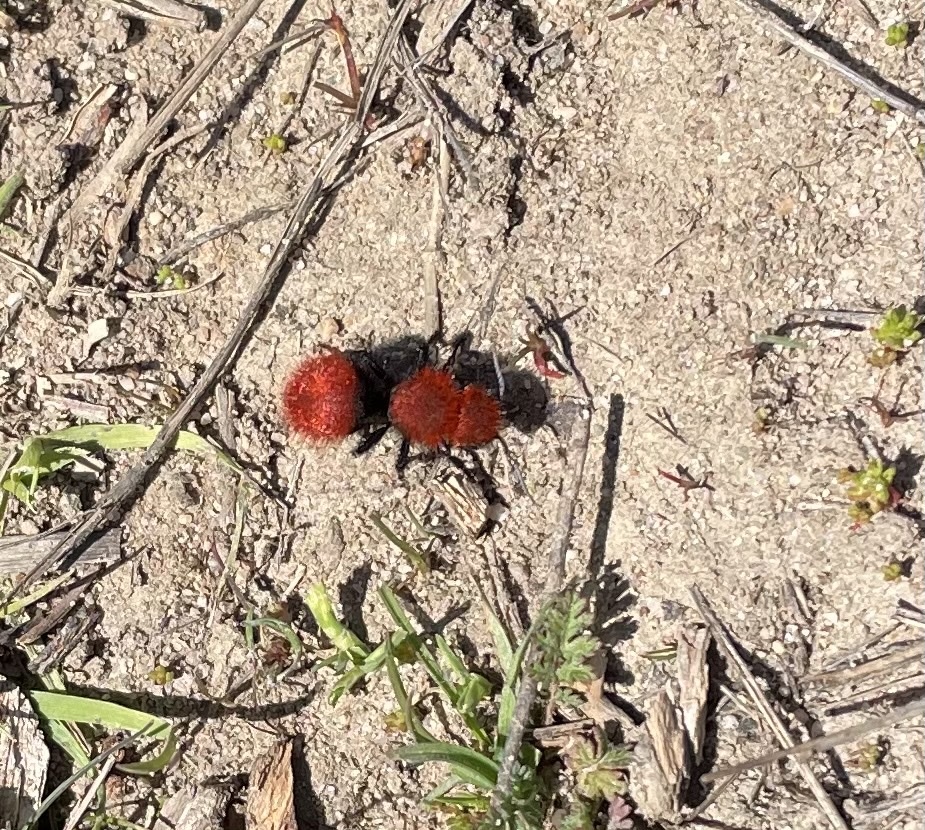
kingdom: Animalia
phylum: Arthropoda
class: Insecta
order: Hymenoptera
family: Mutillidae
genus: Dasymutilla
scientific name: Dasymutilla
